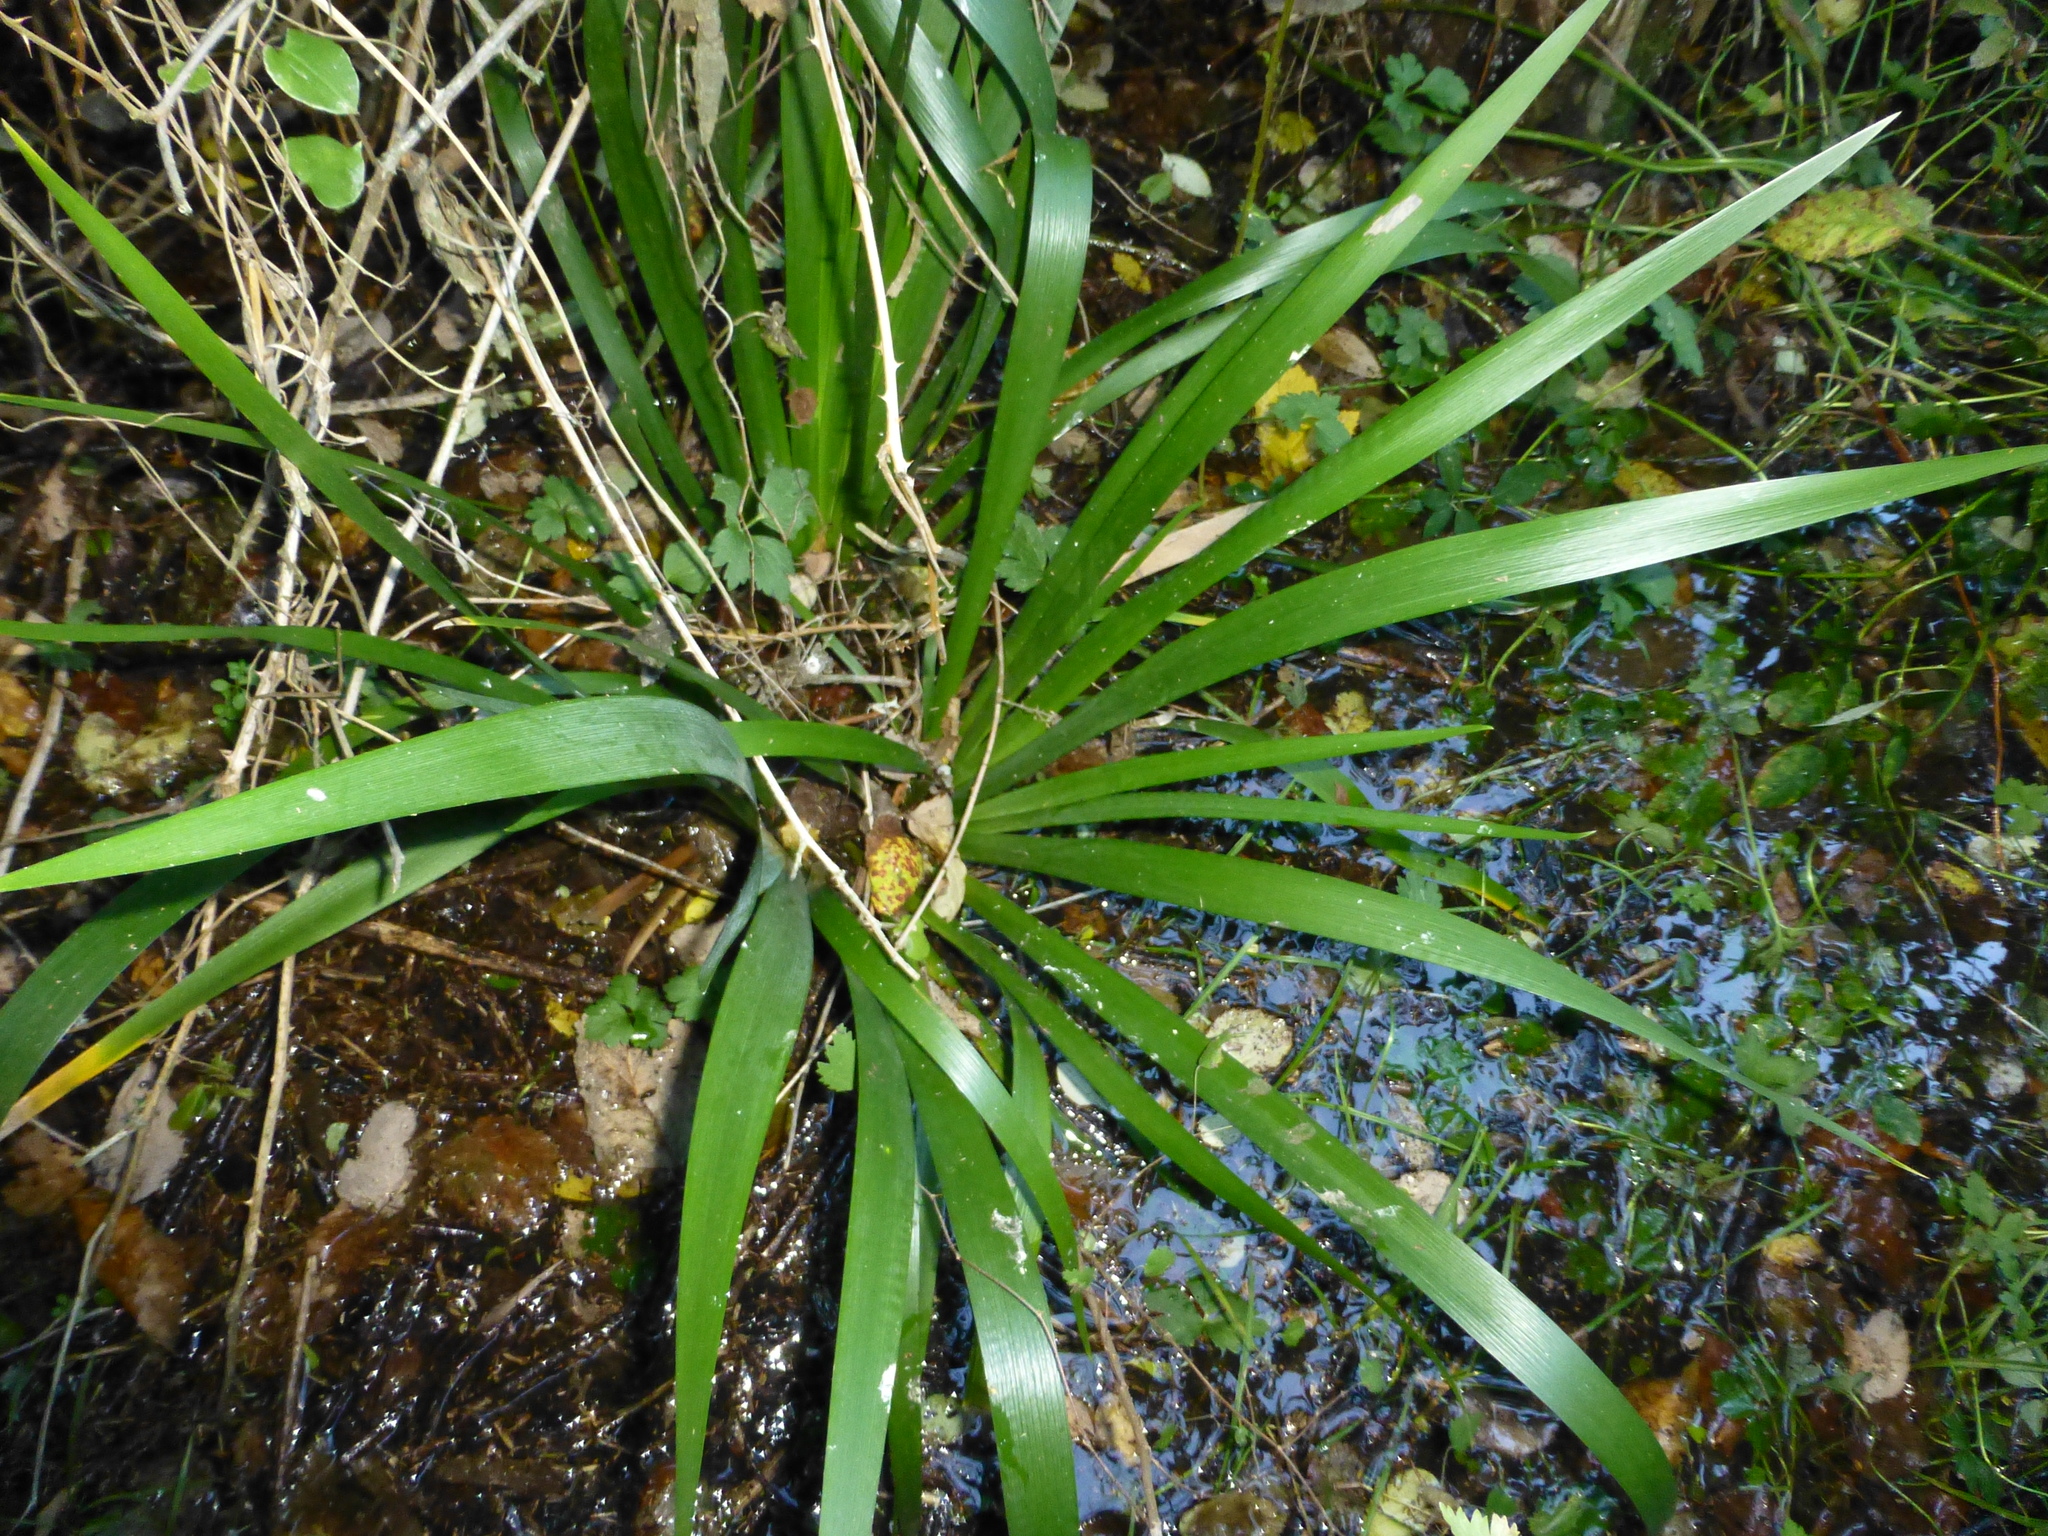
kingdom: Plantae
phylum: Tracheophyta
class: Liliopsida
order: Asparagales
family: Iridaceae
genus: Iris
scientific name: Iris foetidissima
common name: Stinking iris
